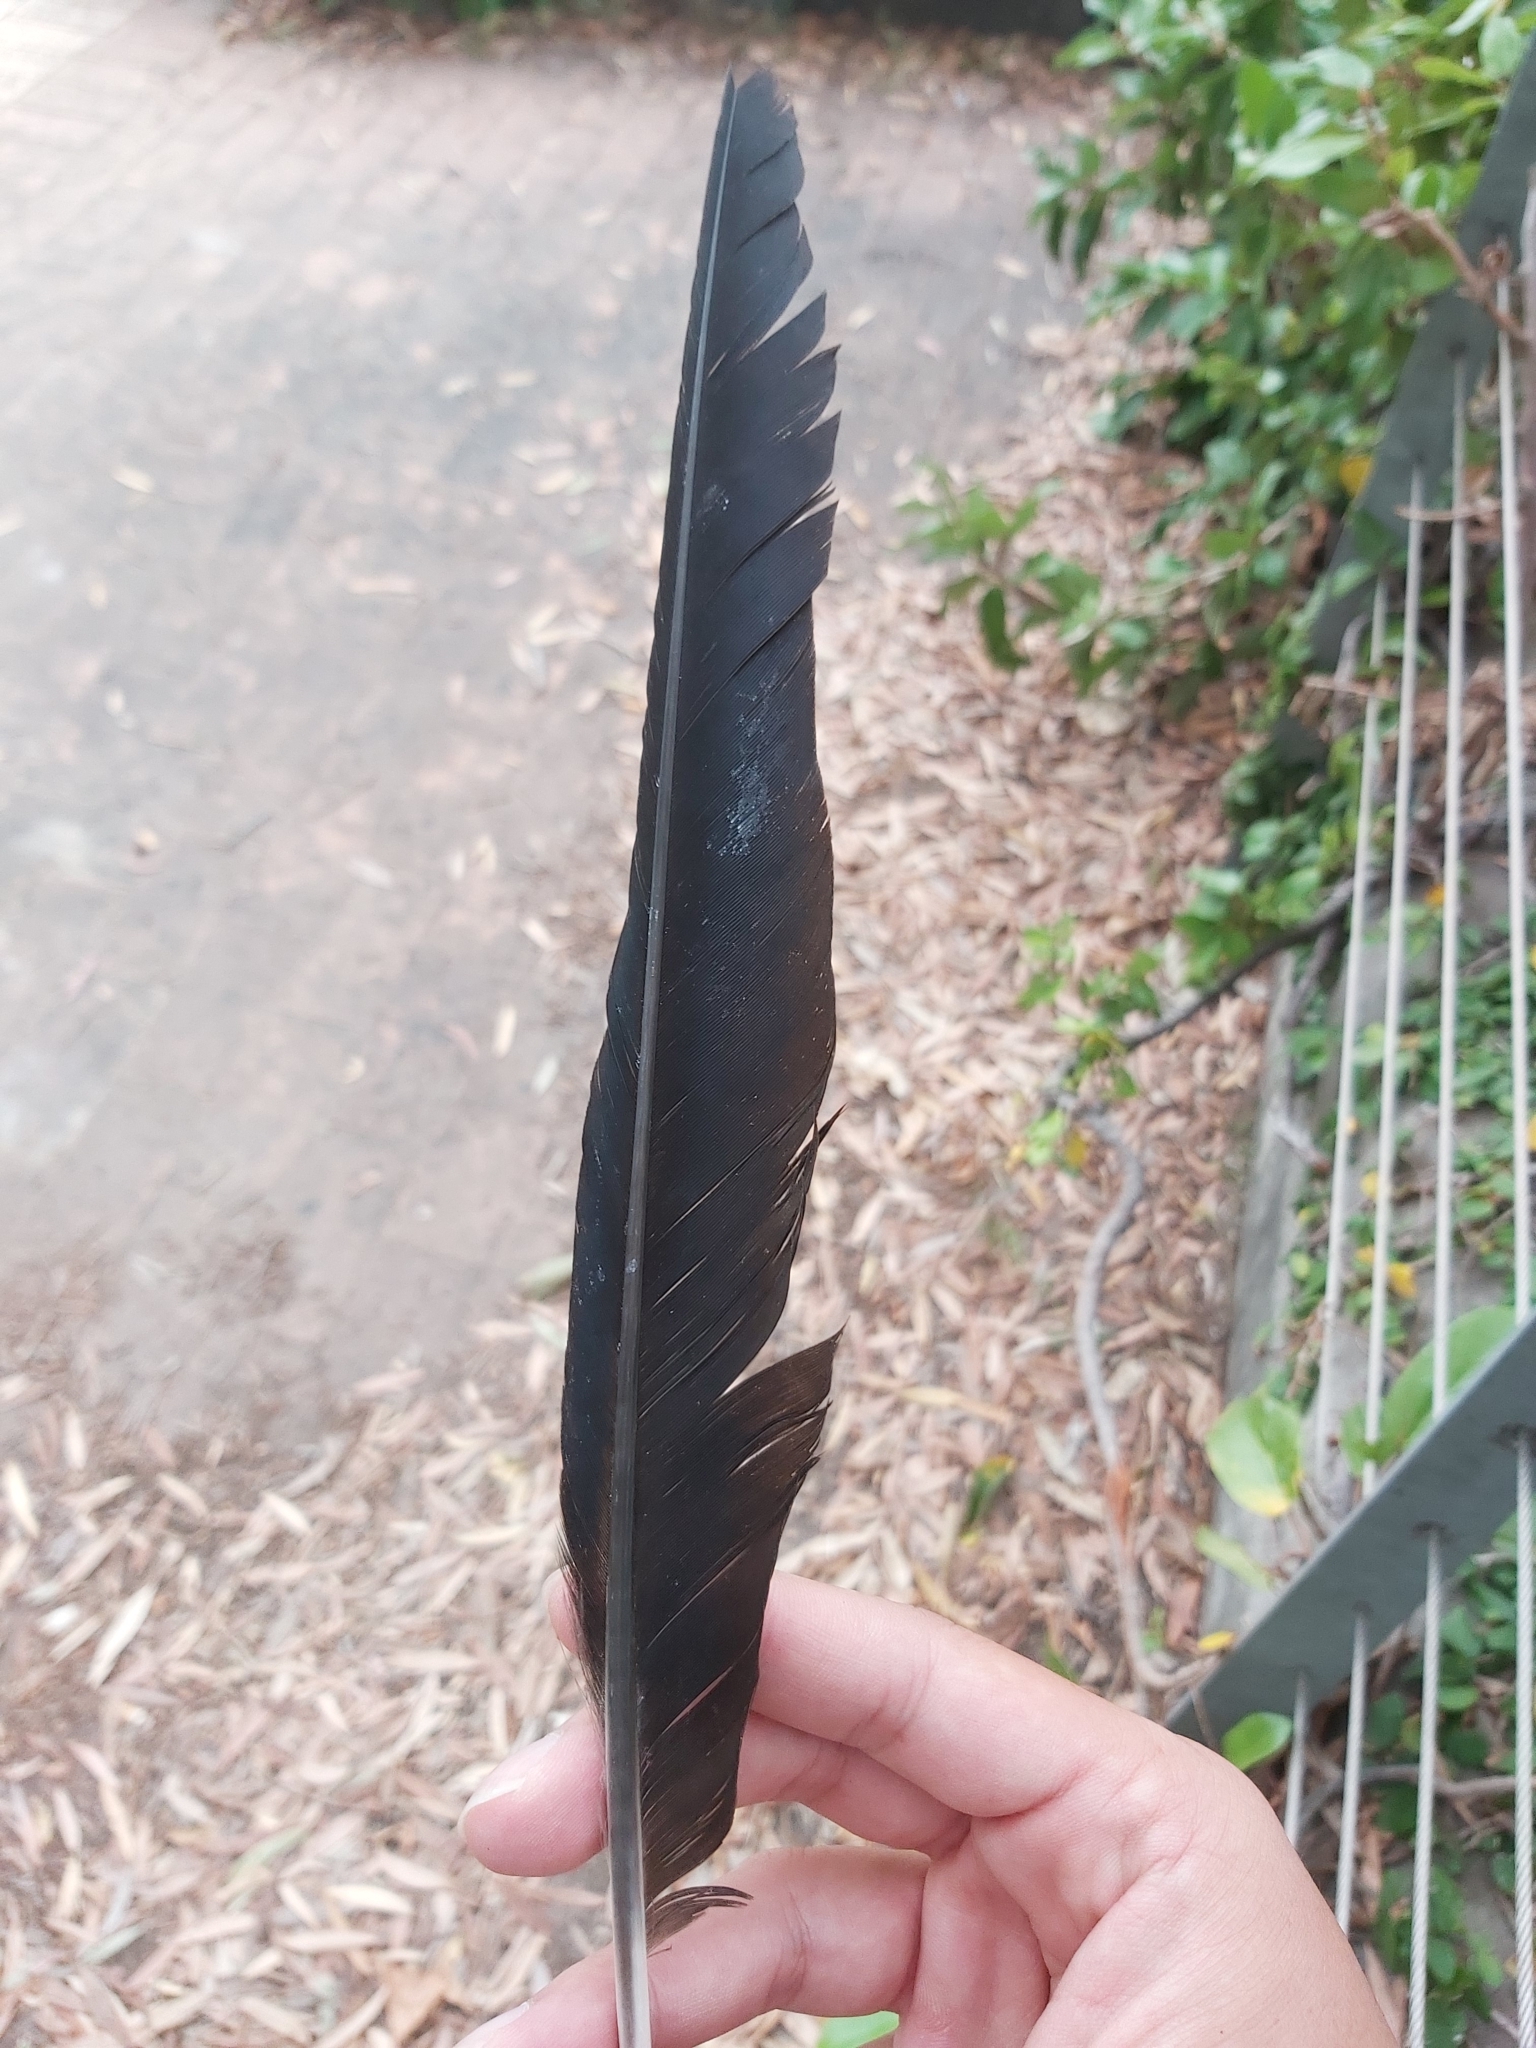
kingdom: Animalia
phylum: Chordata
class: Aves
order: Passeriformes
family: Corvidae
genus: Corvus
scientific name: Corvus coronoides
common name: Australian raven
